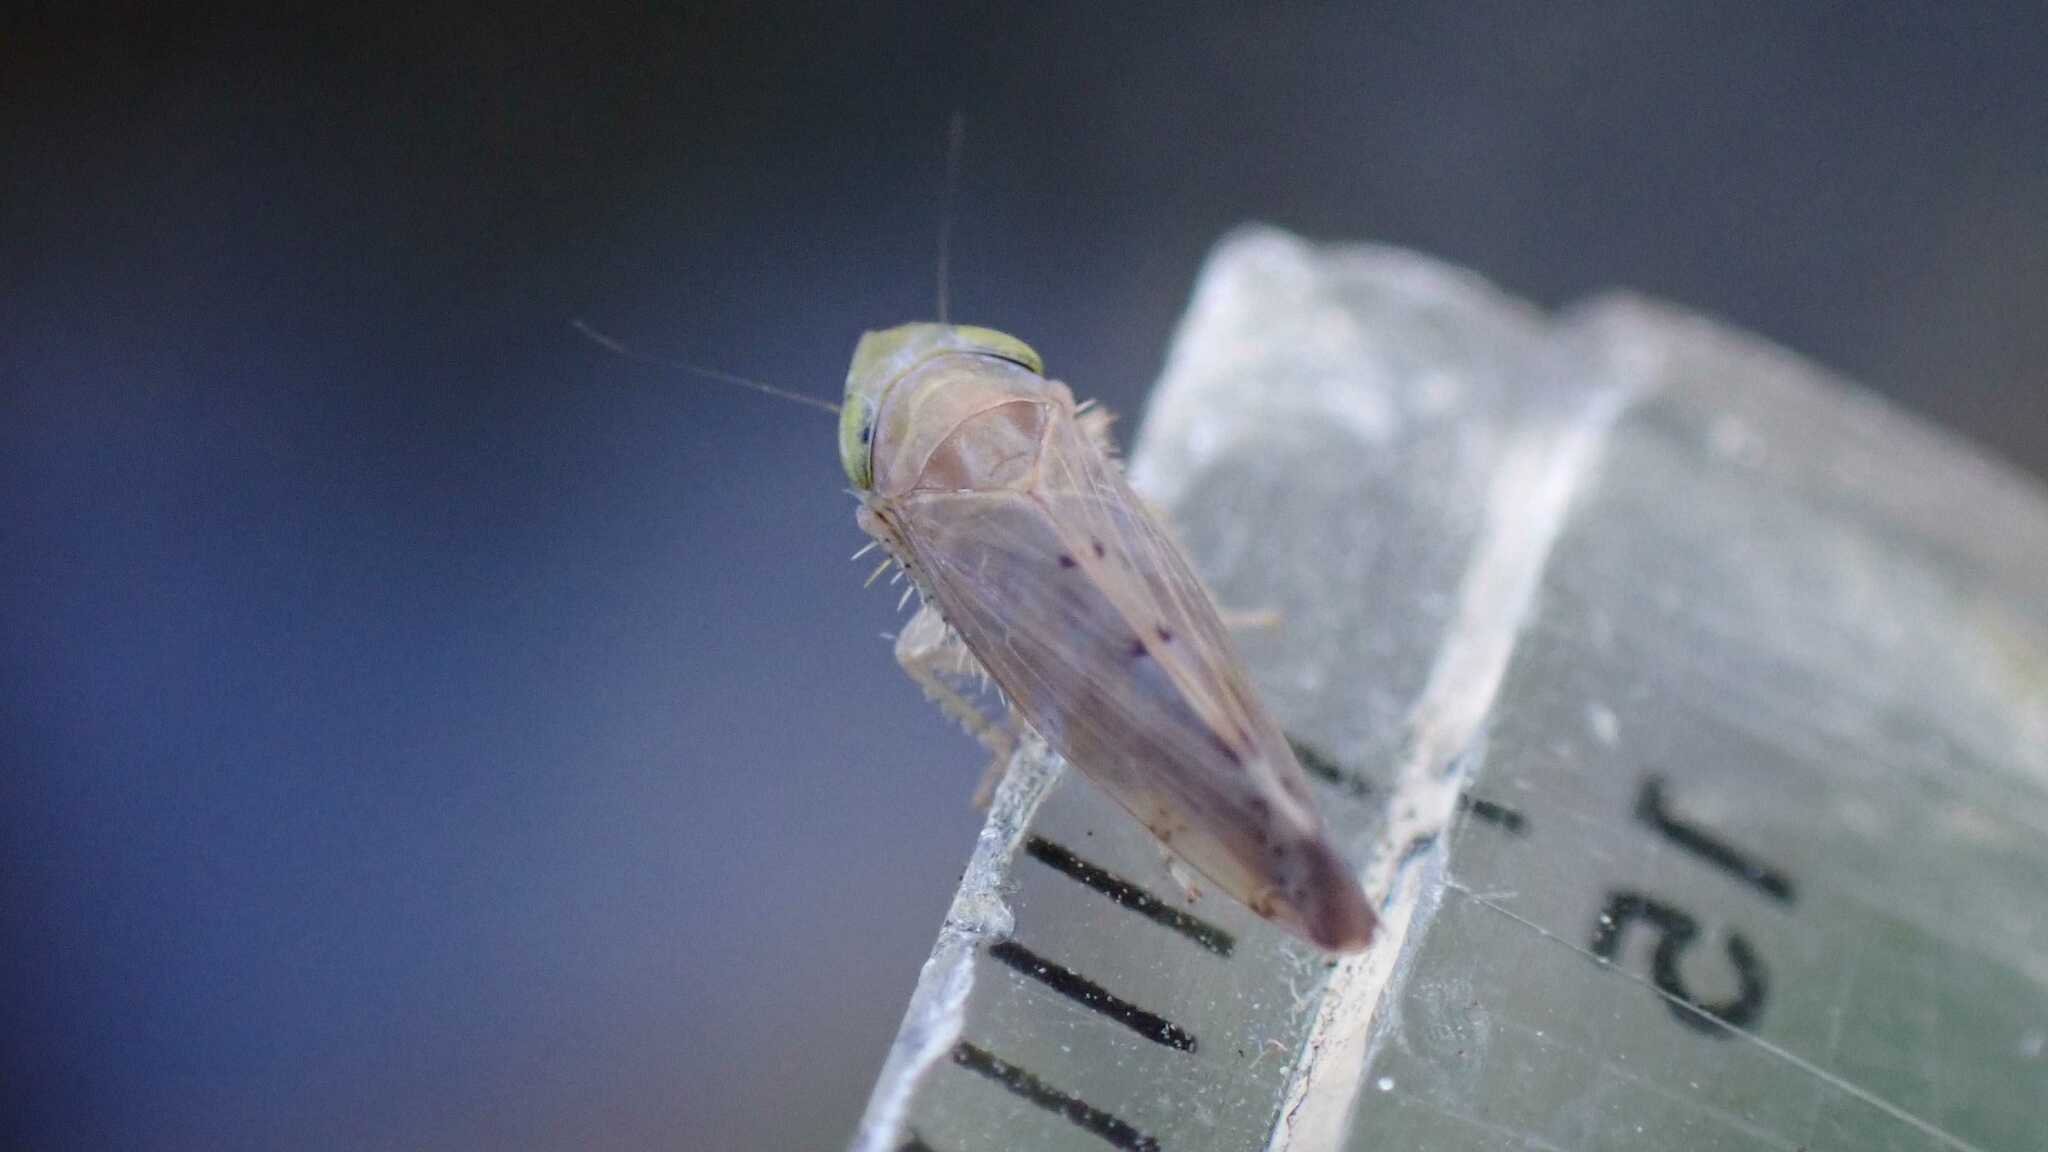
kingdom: Animalia
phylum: Arthropoda
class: Insecta
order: Hemiptera
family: Cicadellidae
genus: Synophropsis
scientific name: Synophropsis lauri
